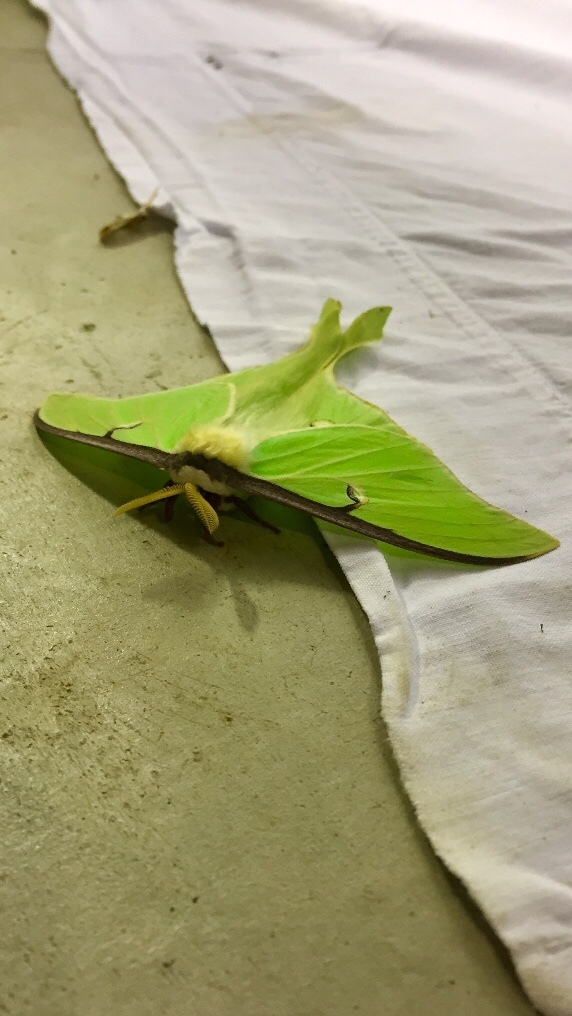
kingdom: Animalia
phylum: Arthropoda
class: Insecta
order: Lepidoptera
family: Saturniidae
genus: Actias
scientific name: Actias luna
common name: Luna moth
